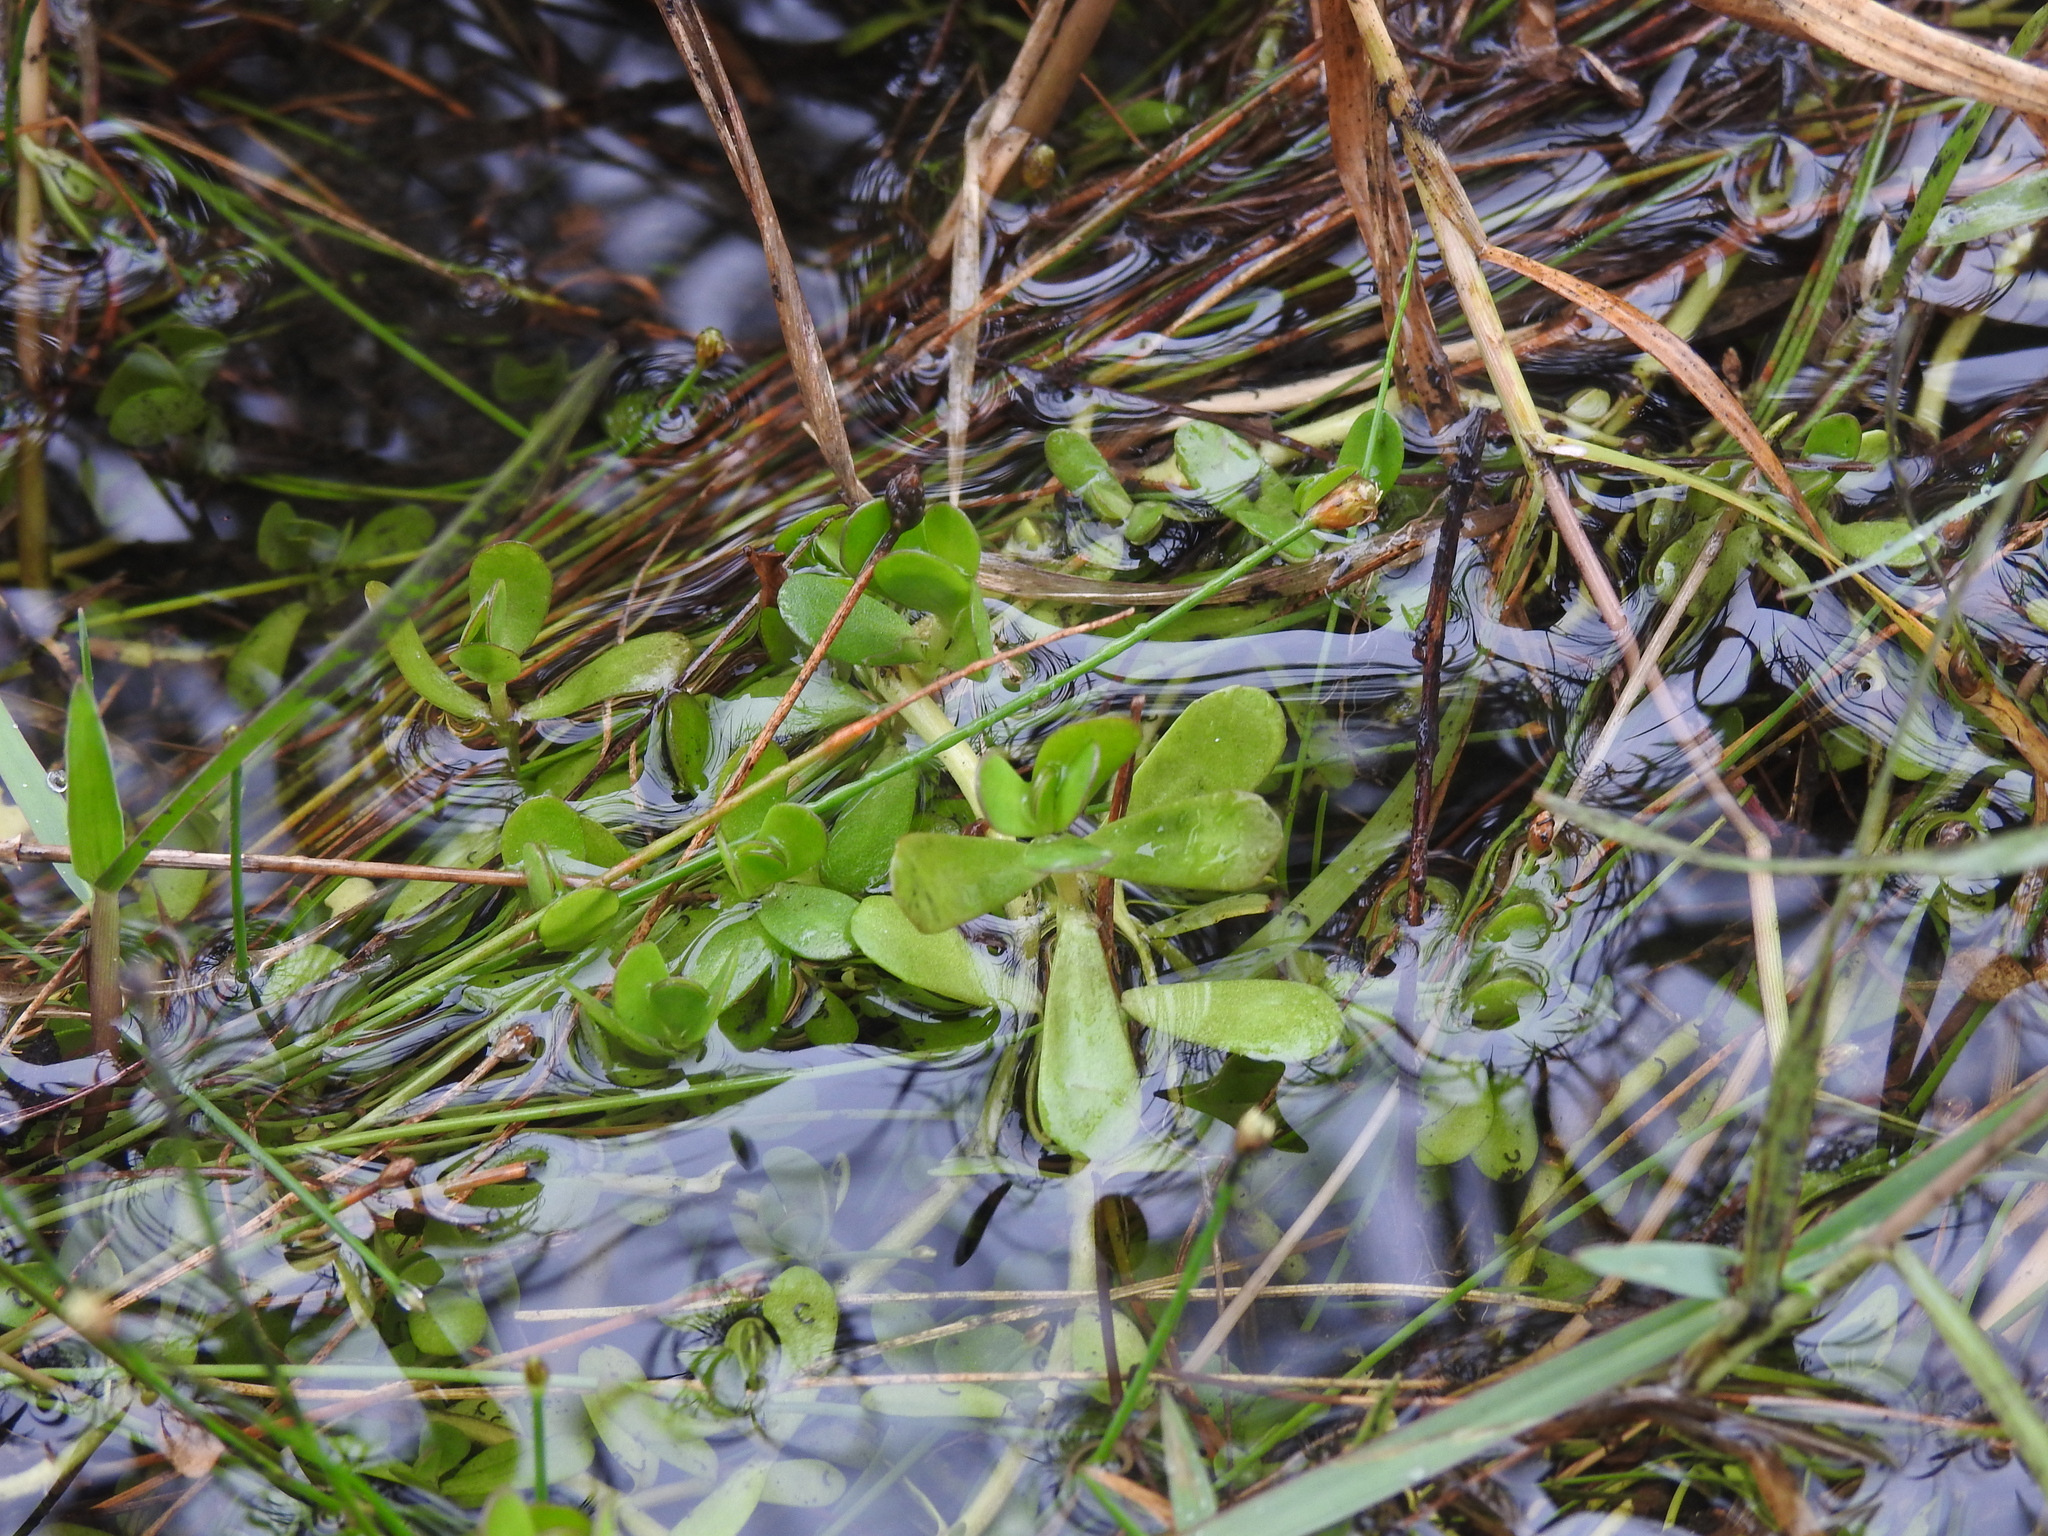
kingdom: Plantae
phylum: Tracheophyta
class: Magnoliopsida
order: Lamiales
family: Plantaginaceae
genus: Bacopa
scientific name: Bacopa monnieri
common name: Indian-pennywort
